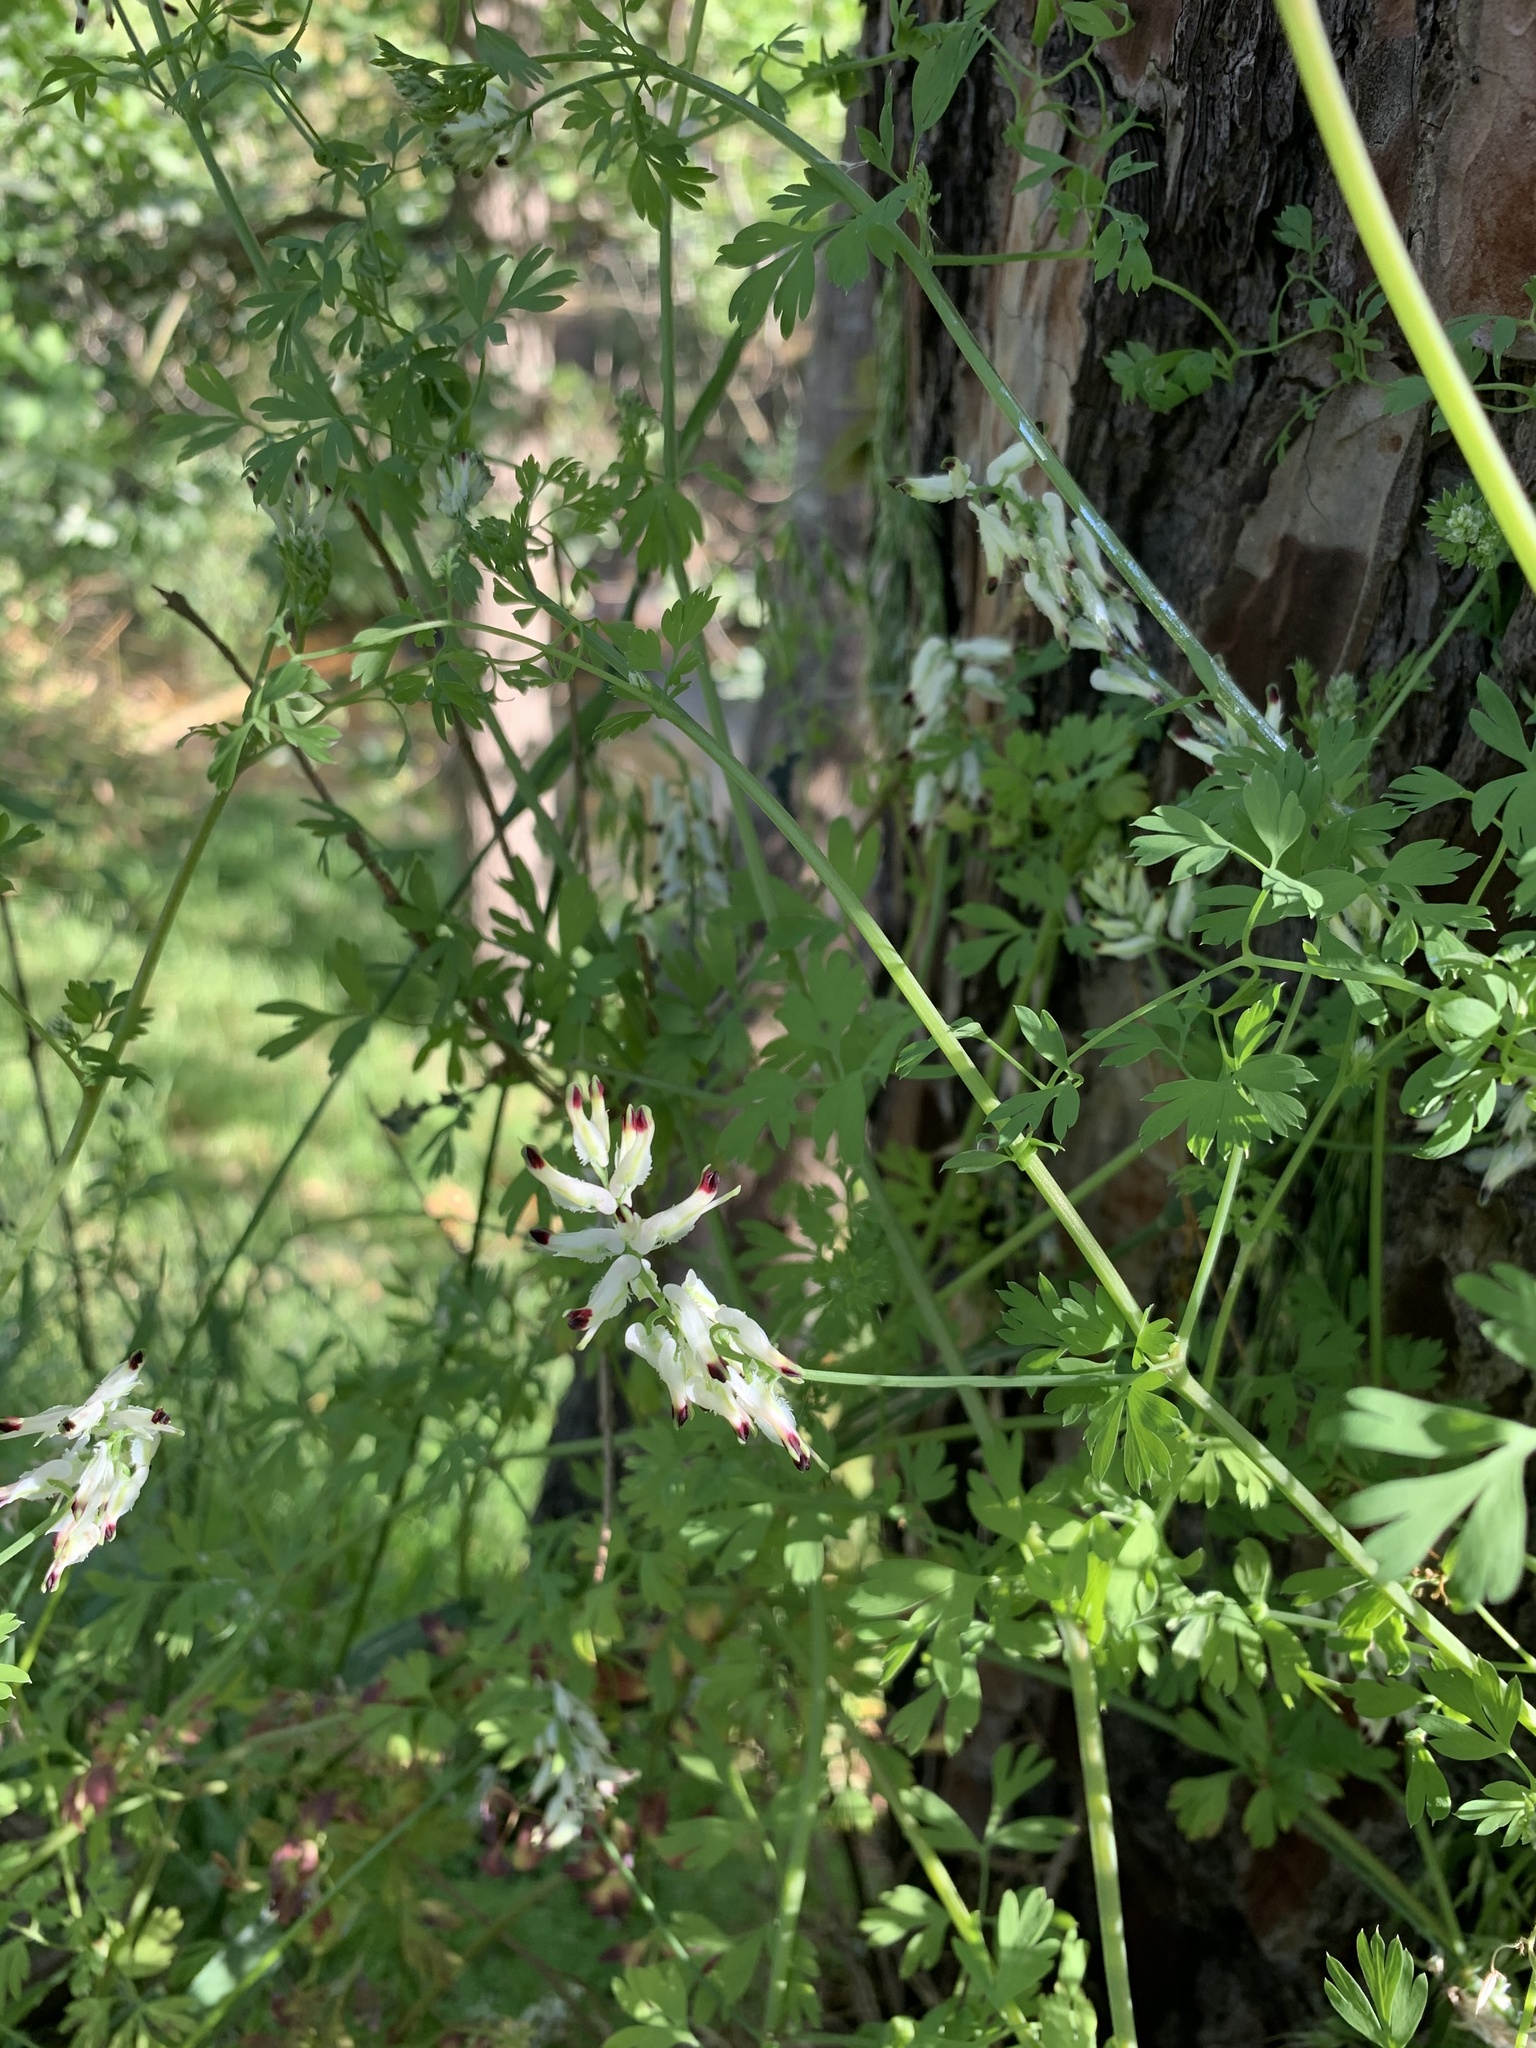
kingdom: Plantae
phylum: Tracheophyta
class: Magnoliopsida
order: Ranunculales
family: Papaveraceae
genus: Fumaria
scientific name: Fumaria capreolata
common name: White ramping-fumitory
